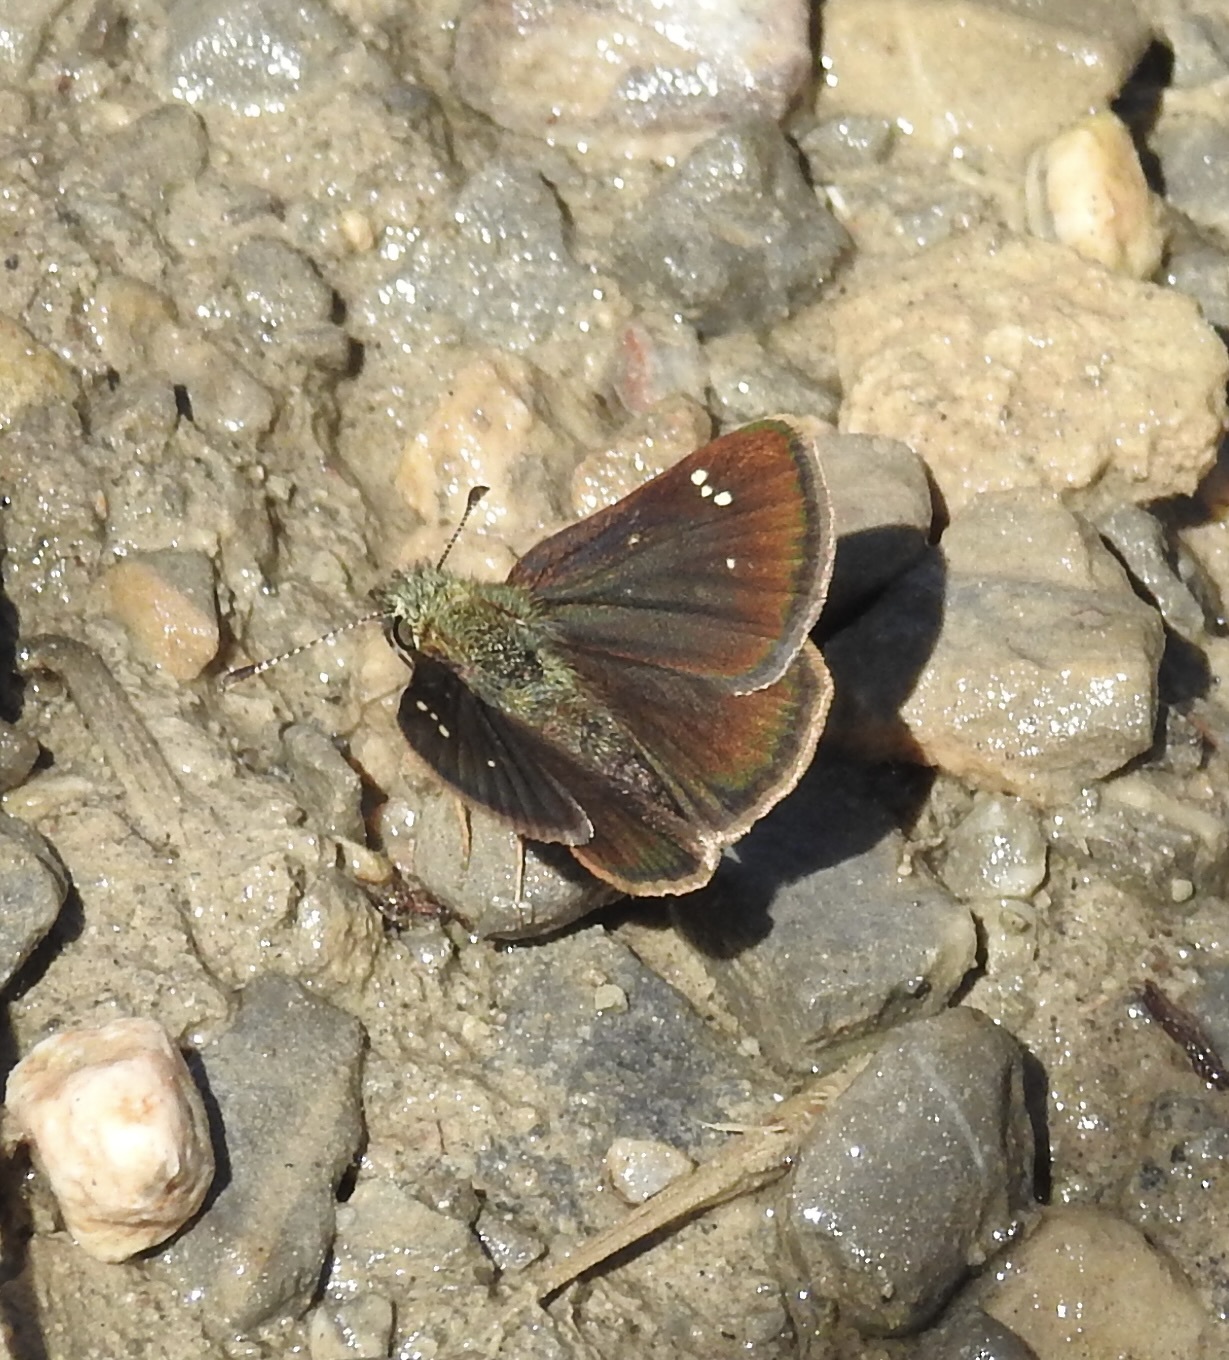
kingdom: Animalia
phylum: Arthropoda
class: Insecta
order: Lepidoptera
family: Hesperiidae
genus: Piruna
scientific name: Piruna pirus
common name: Russet skipperling
